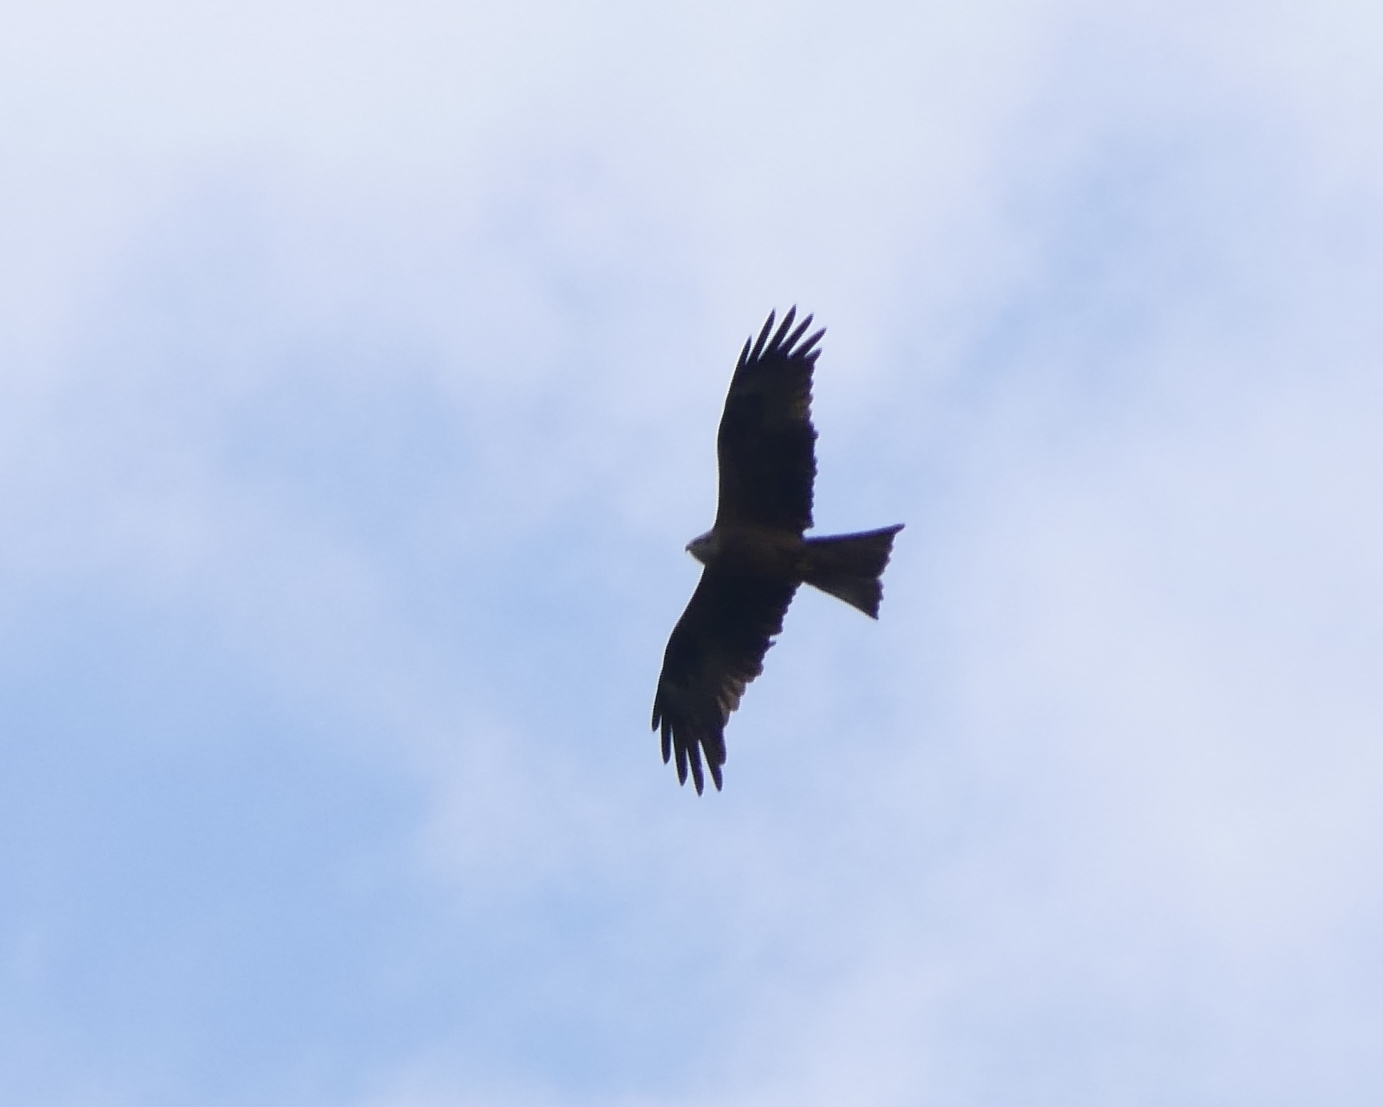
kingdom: Animalia
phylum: Chordata
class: Aves
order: Accipitriformes
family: Accipitridae
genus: Milvus
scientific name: Milvus migrans
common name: Black kite
